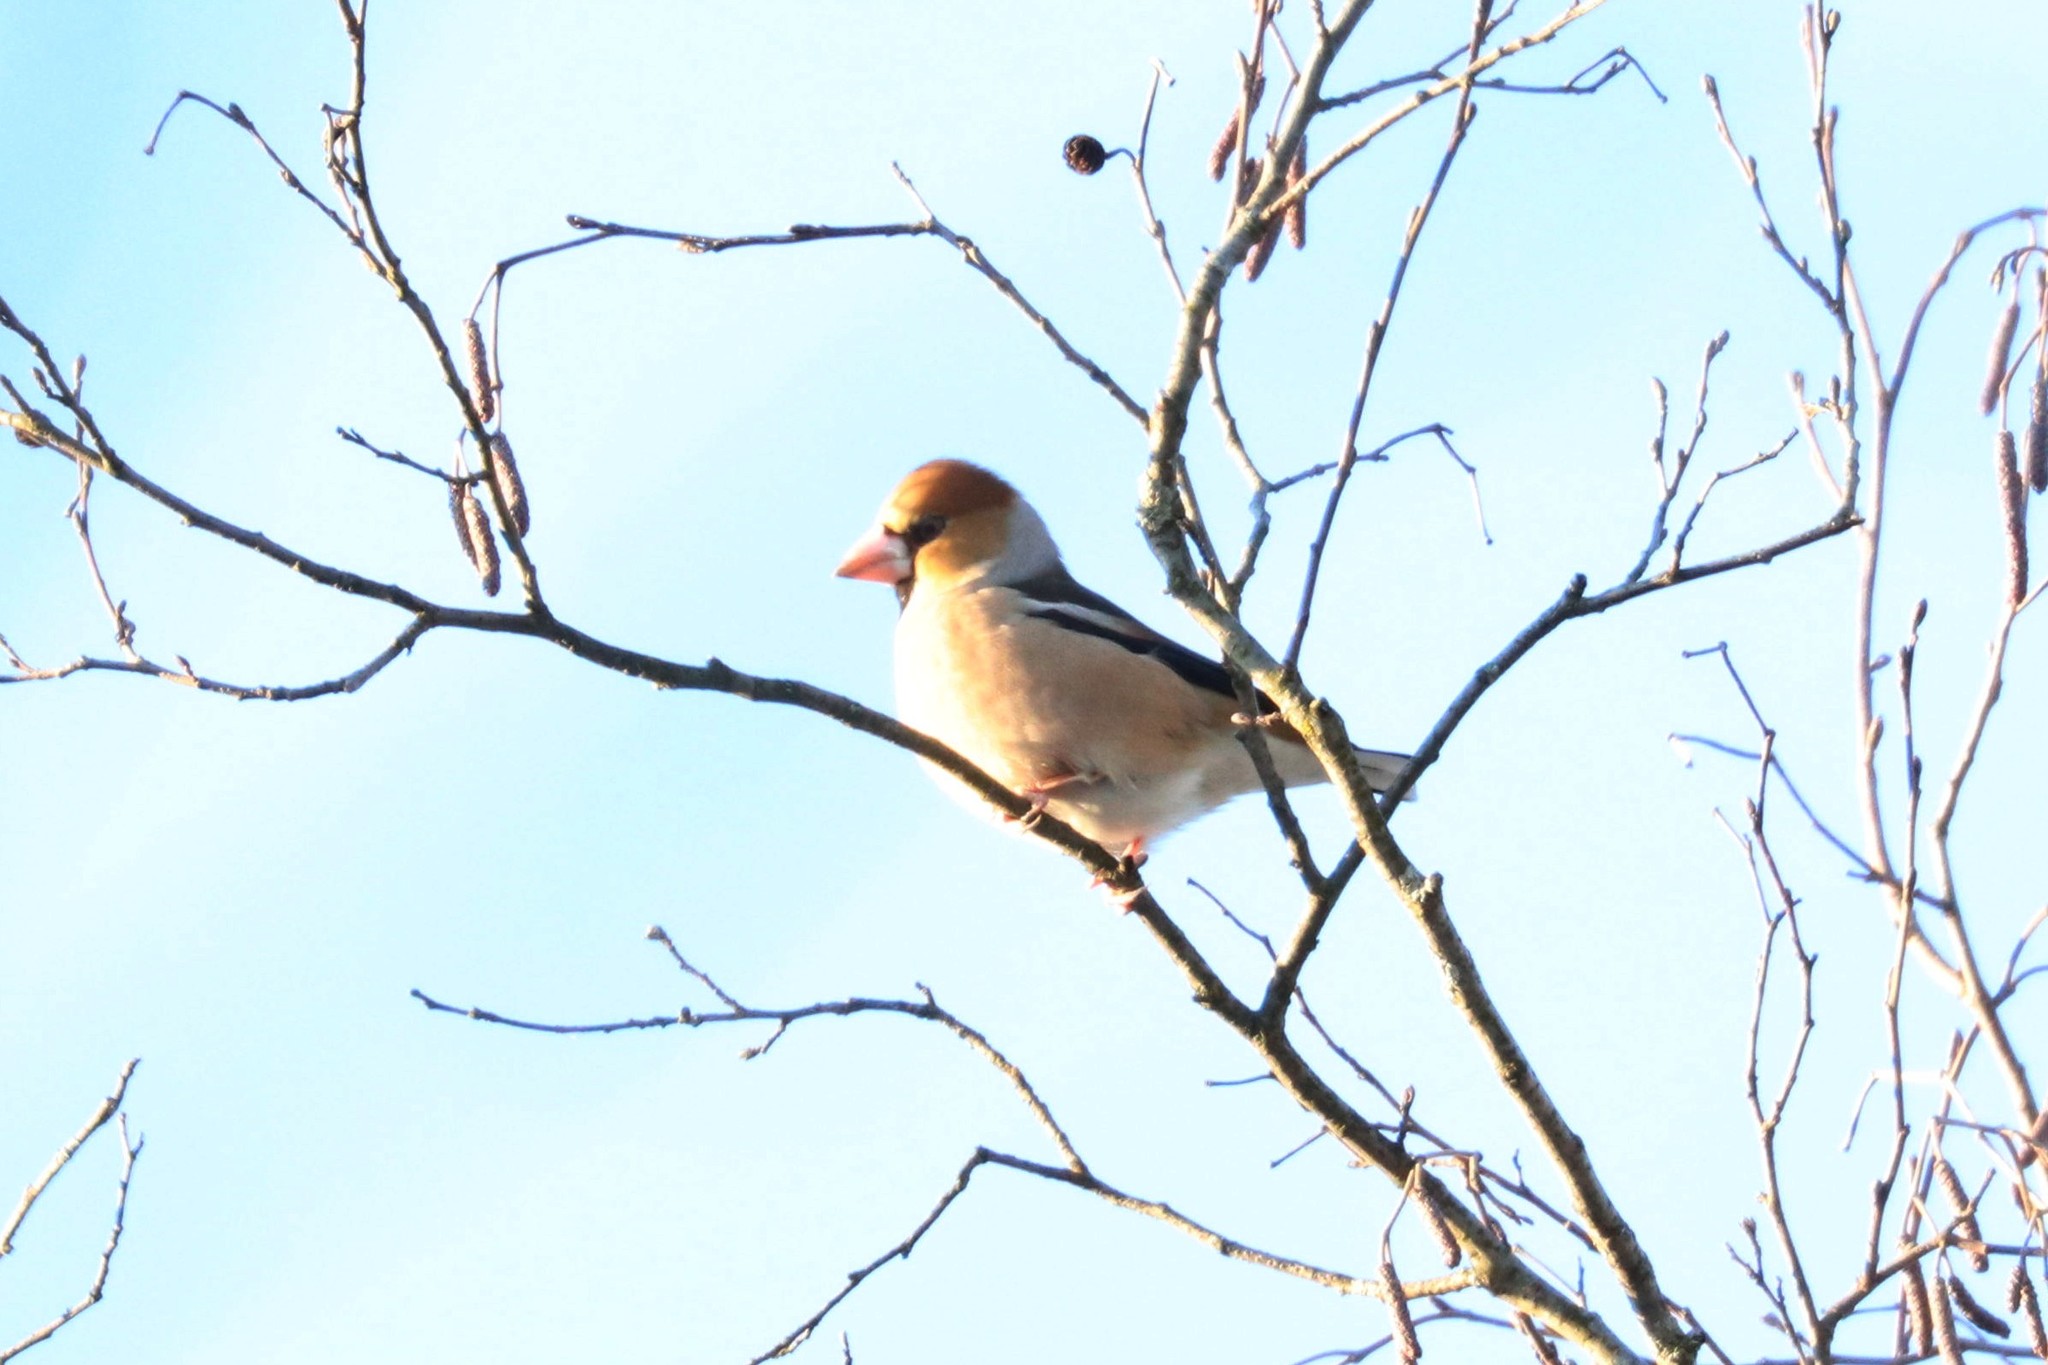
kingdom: Animalia
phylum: Chordata
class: Aves
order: Passeriformes
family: Fringillidae
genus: Coccothraustes
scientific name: Coccothraustes coccothraustes
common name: Hawfinch
